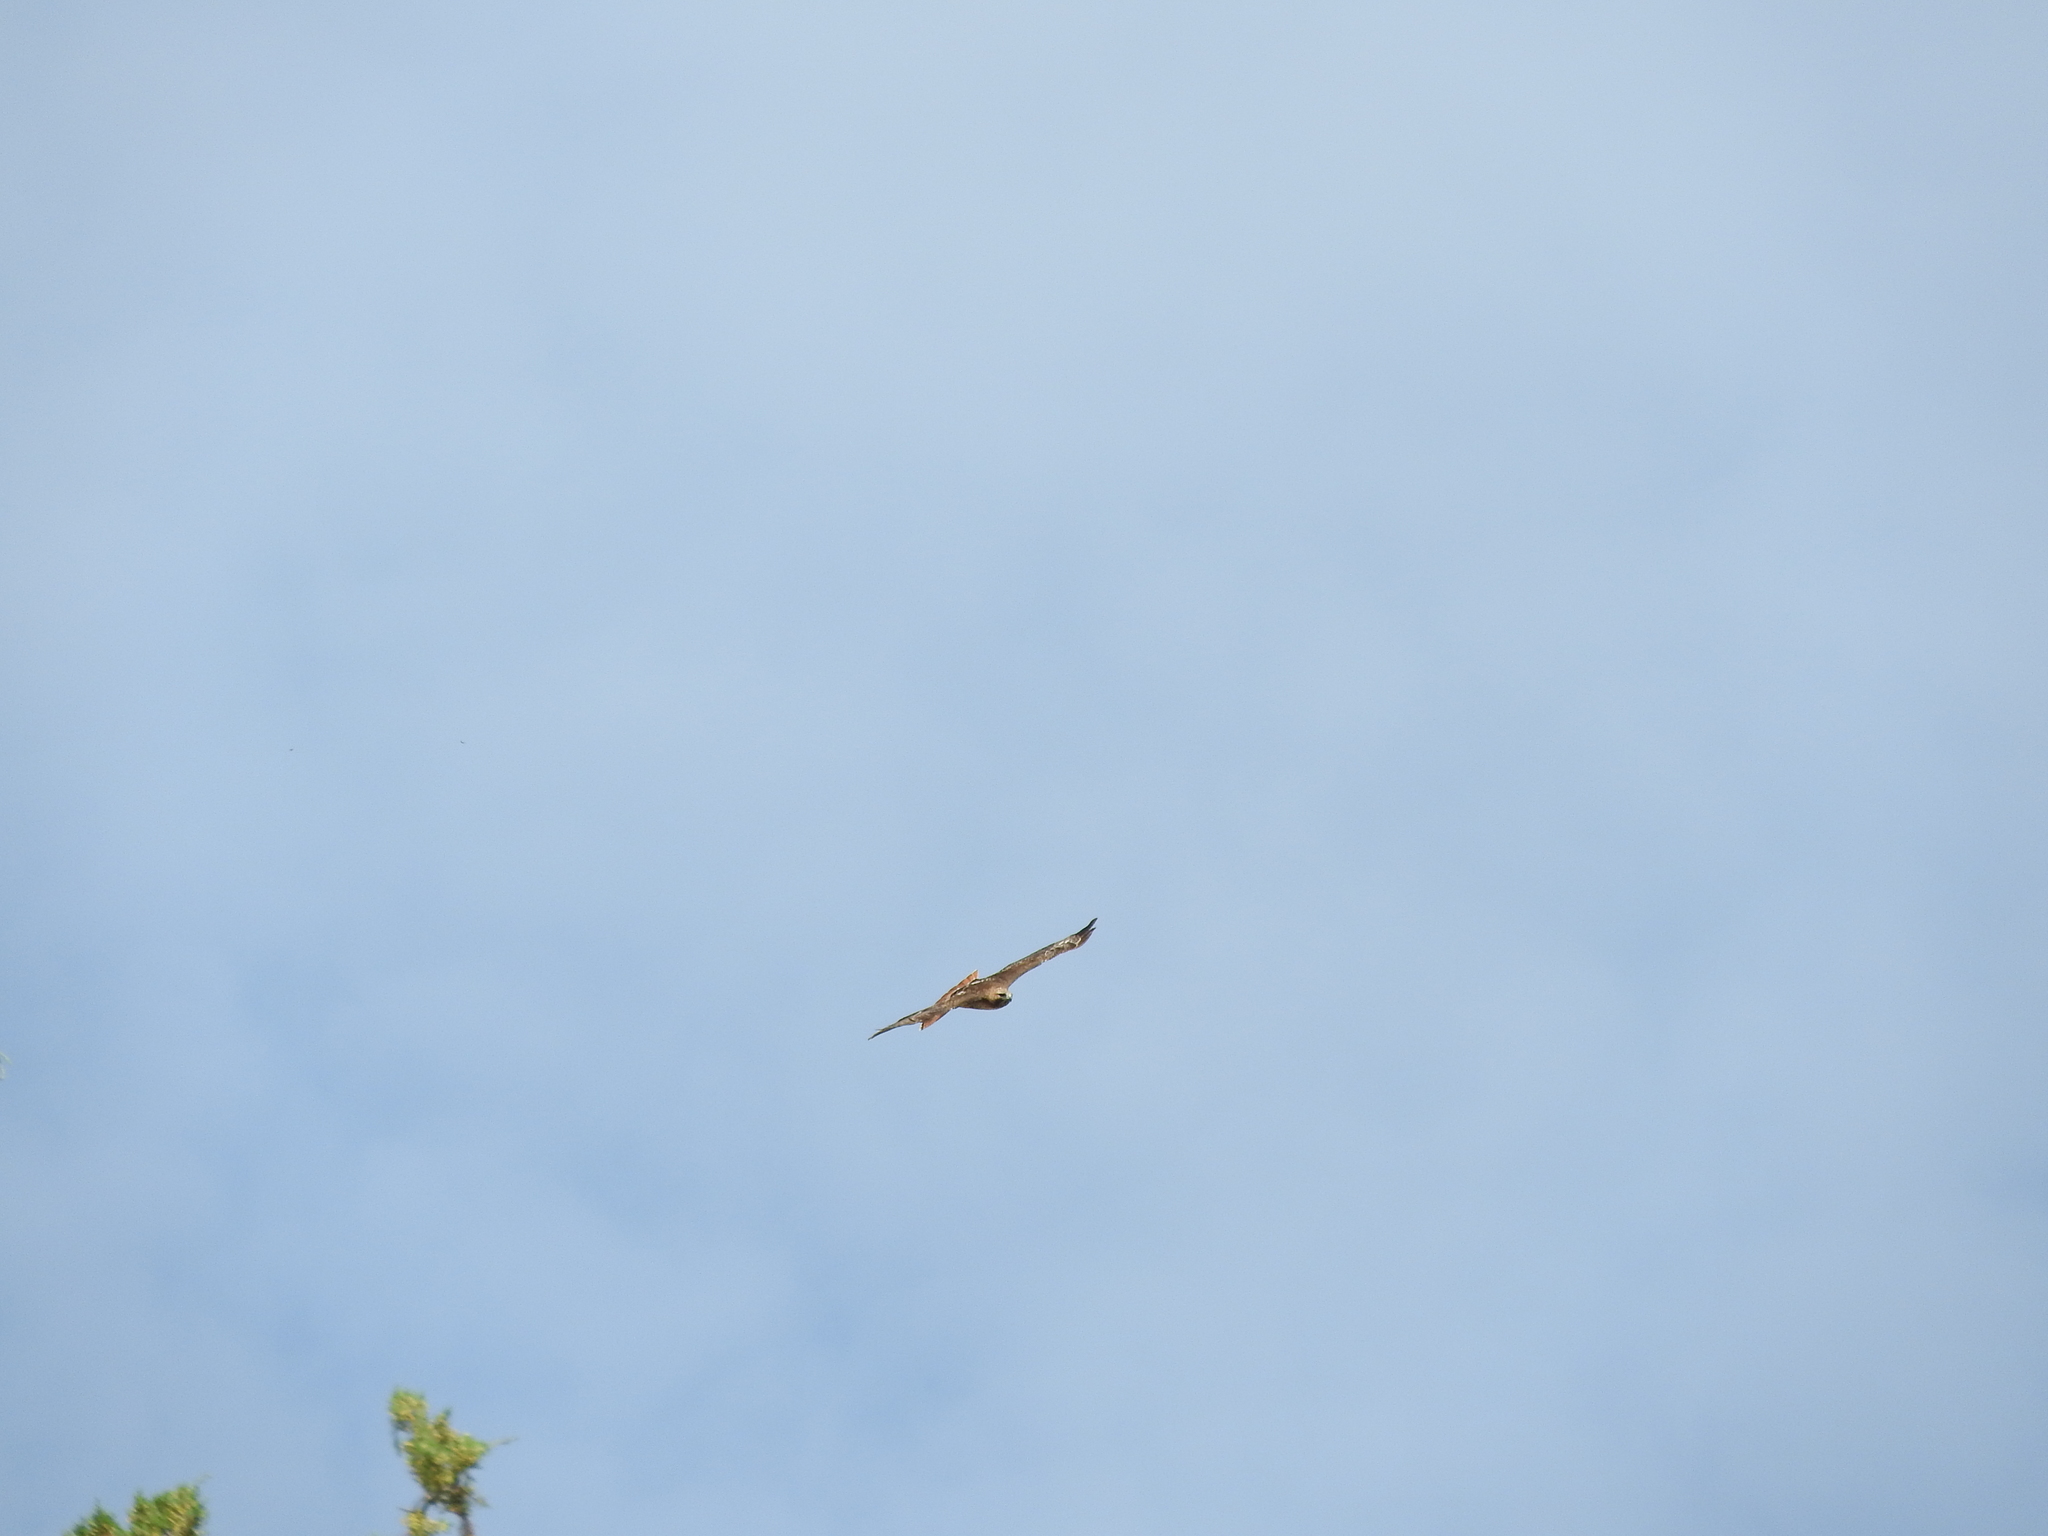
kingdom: Animalia
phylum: Chordata
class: Aves
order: Accipitriformes
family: Accipitridae
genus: Buteo
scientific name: Buteo jamaicensis
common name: Red-tailed hawk
